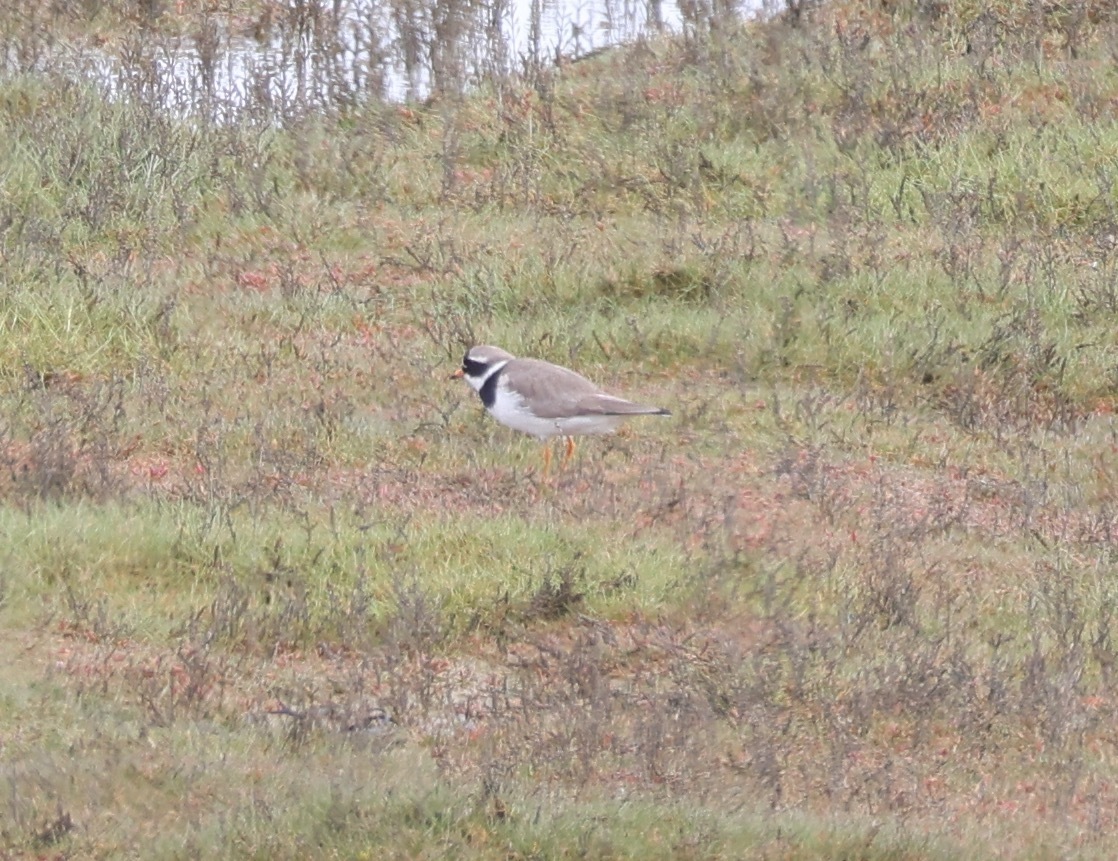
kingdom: Animalia
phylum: Chordata
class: Aves
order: Charadriiformes
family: Charadriidae
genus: Charadrius
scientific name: Charadrius hiaticula
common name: Common ringed plover
